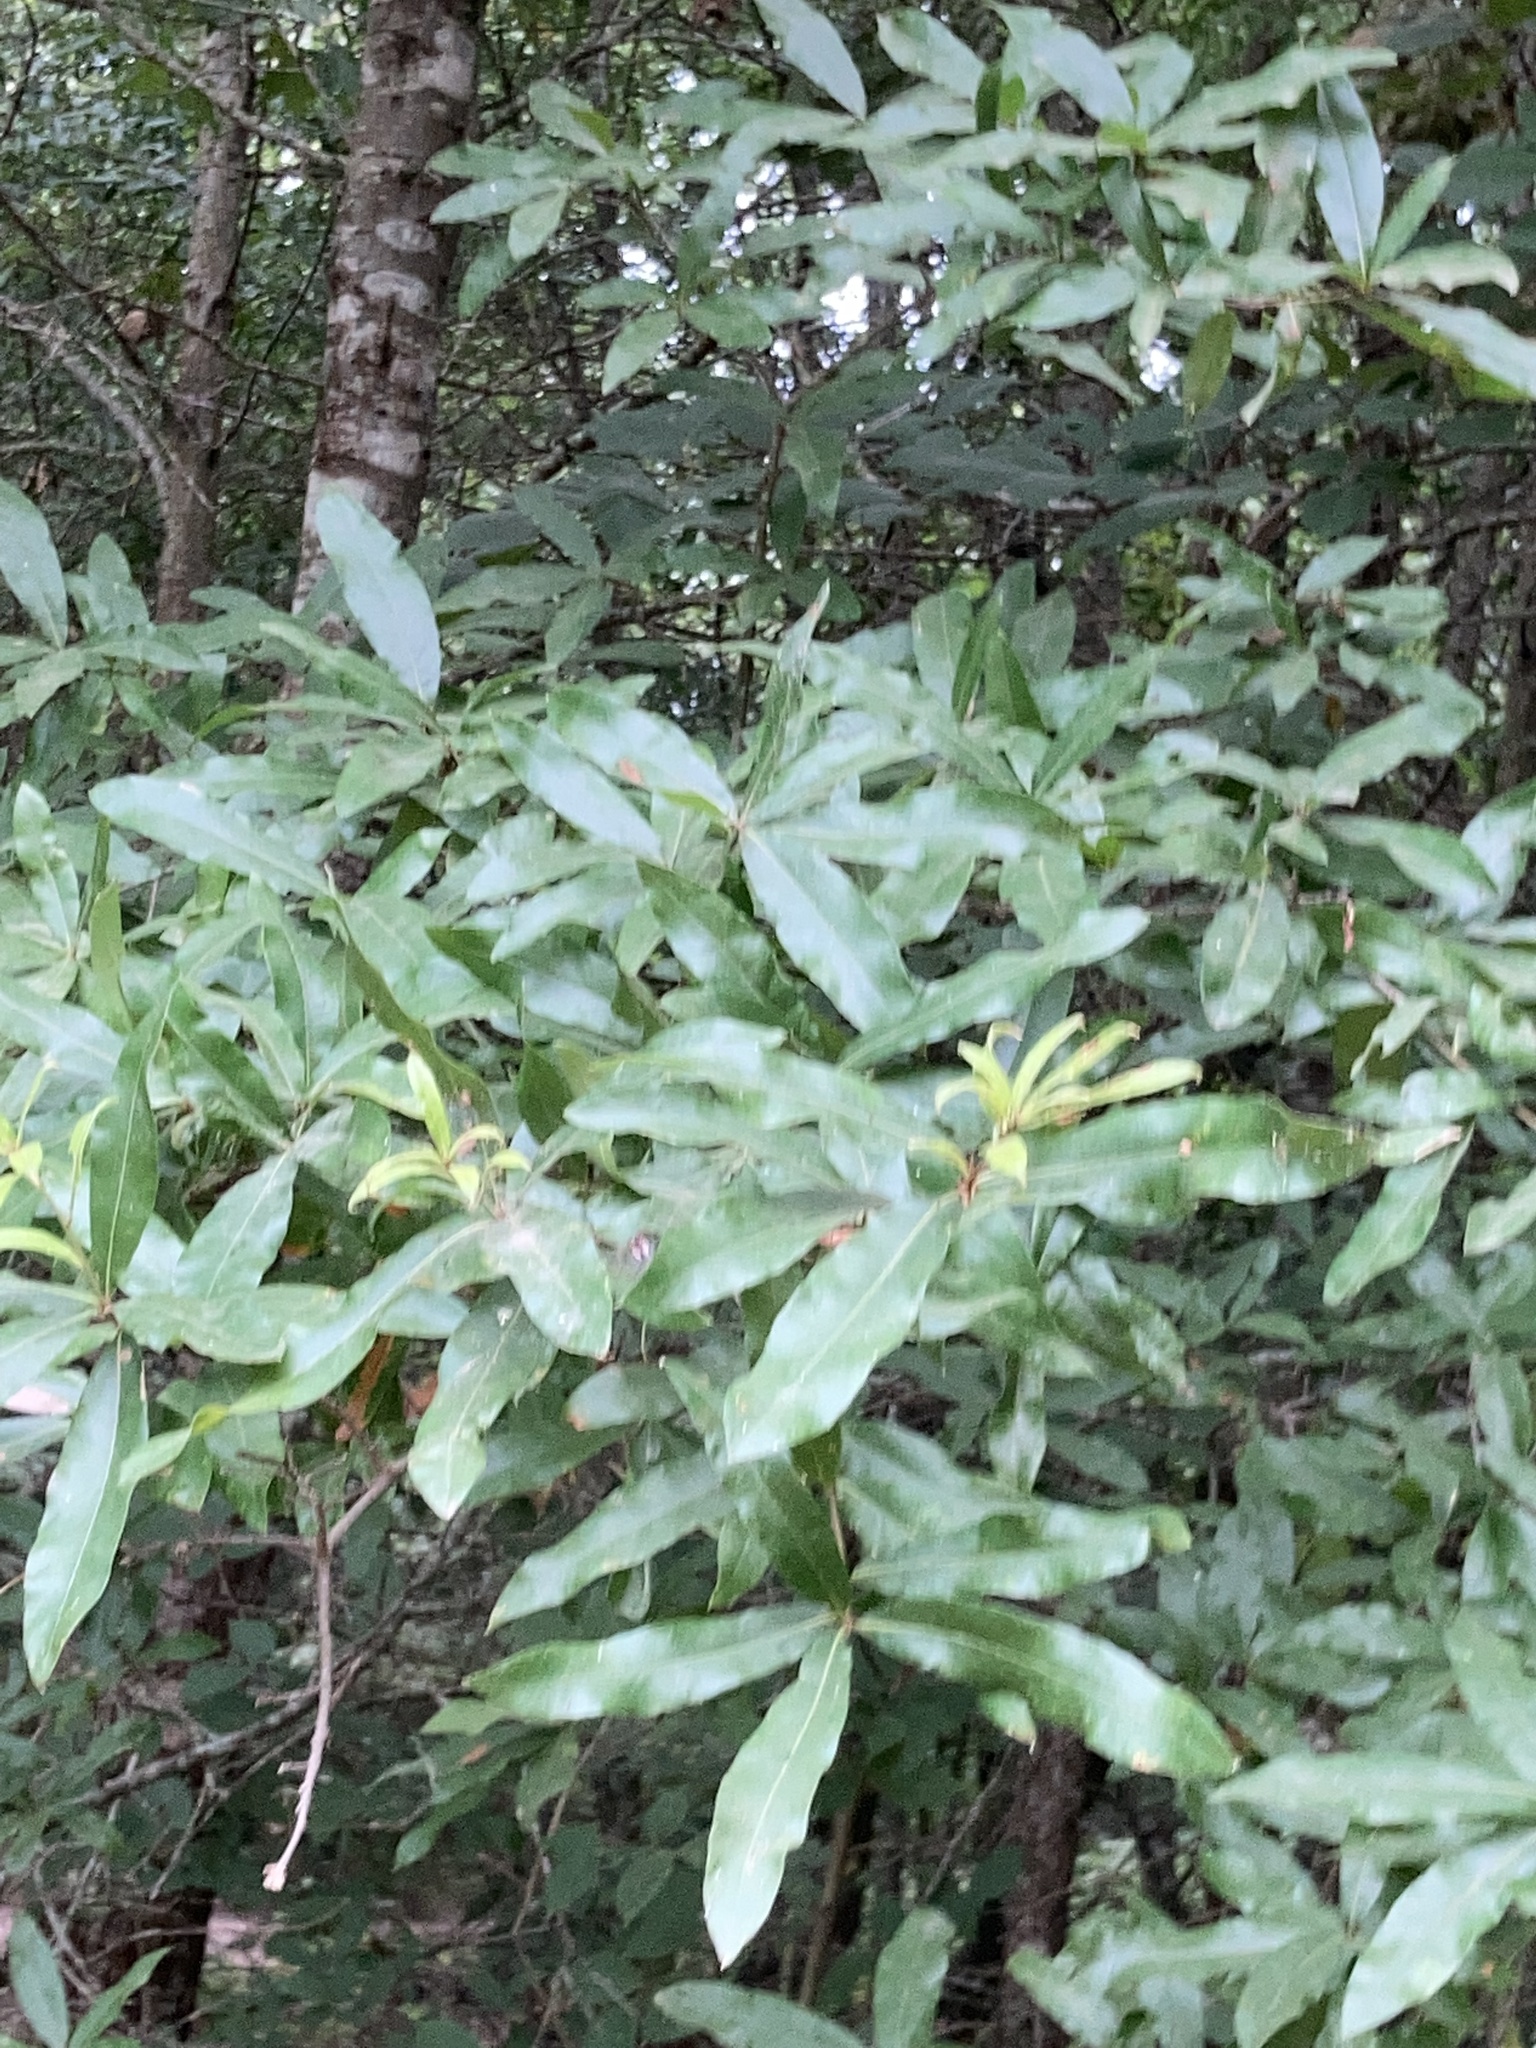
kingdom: Plantae
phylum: Tracheophyta
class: Magnoliopsida
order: Fagales
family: Fagaceae
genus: Quercus
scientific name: Quercus phellos
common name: Willow oak
